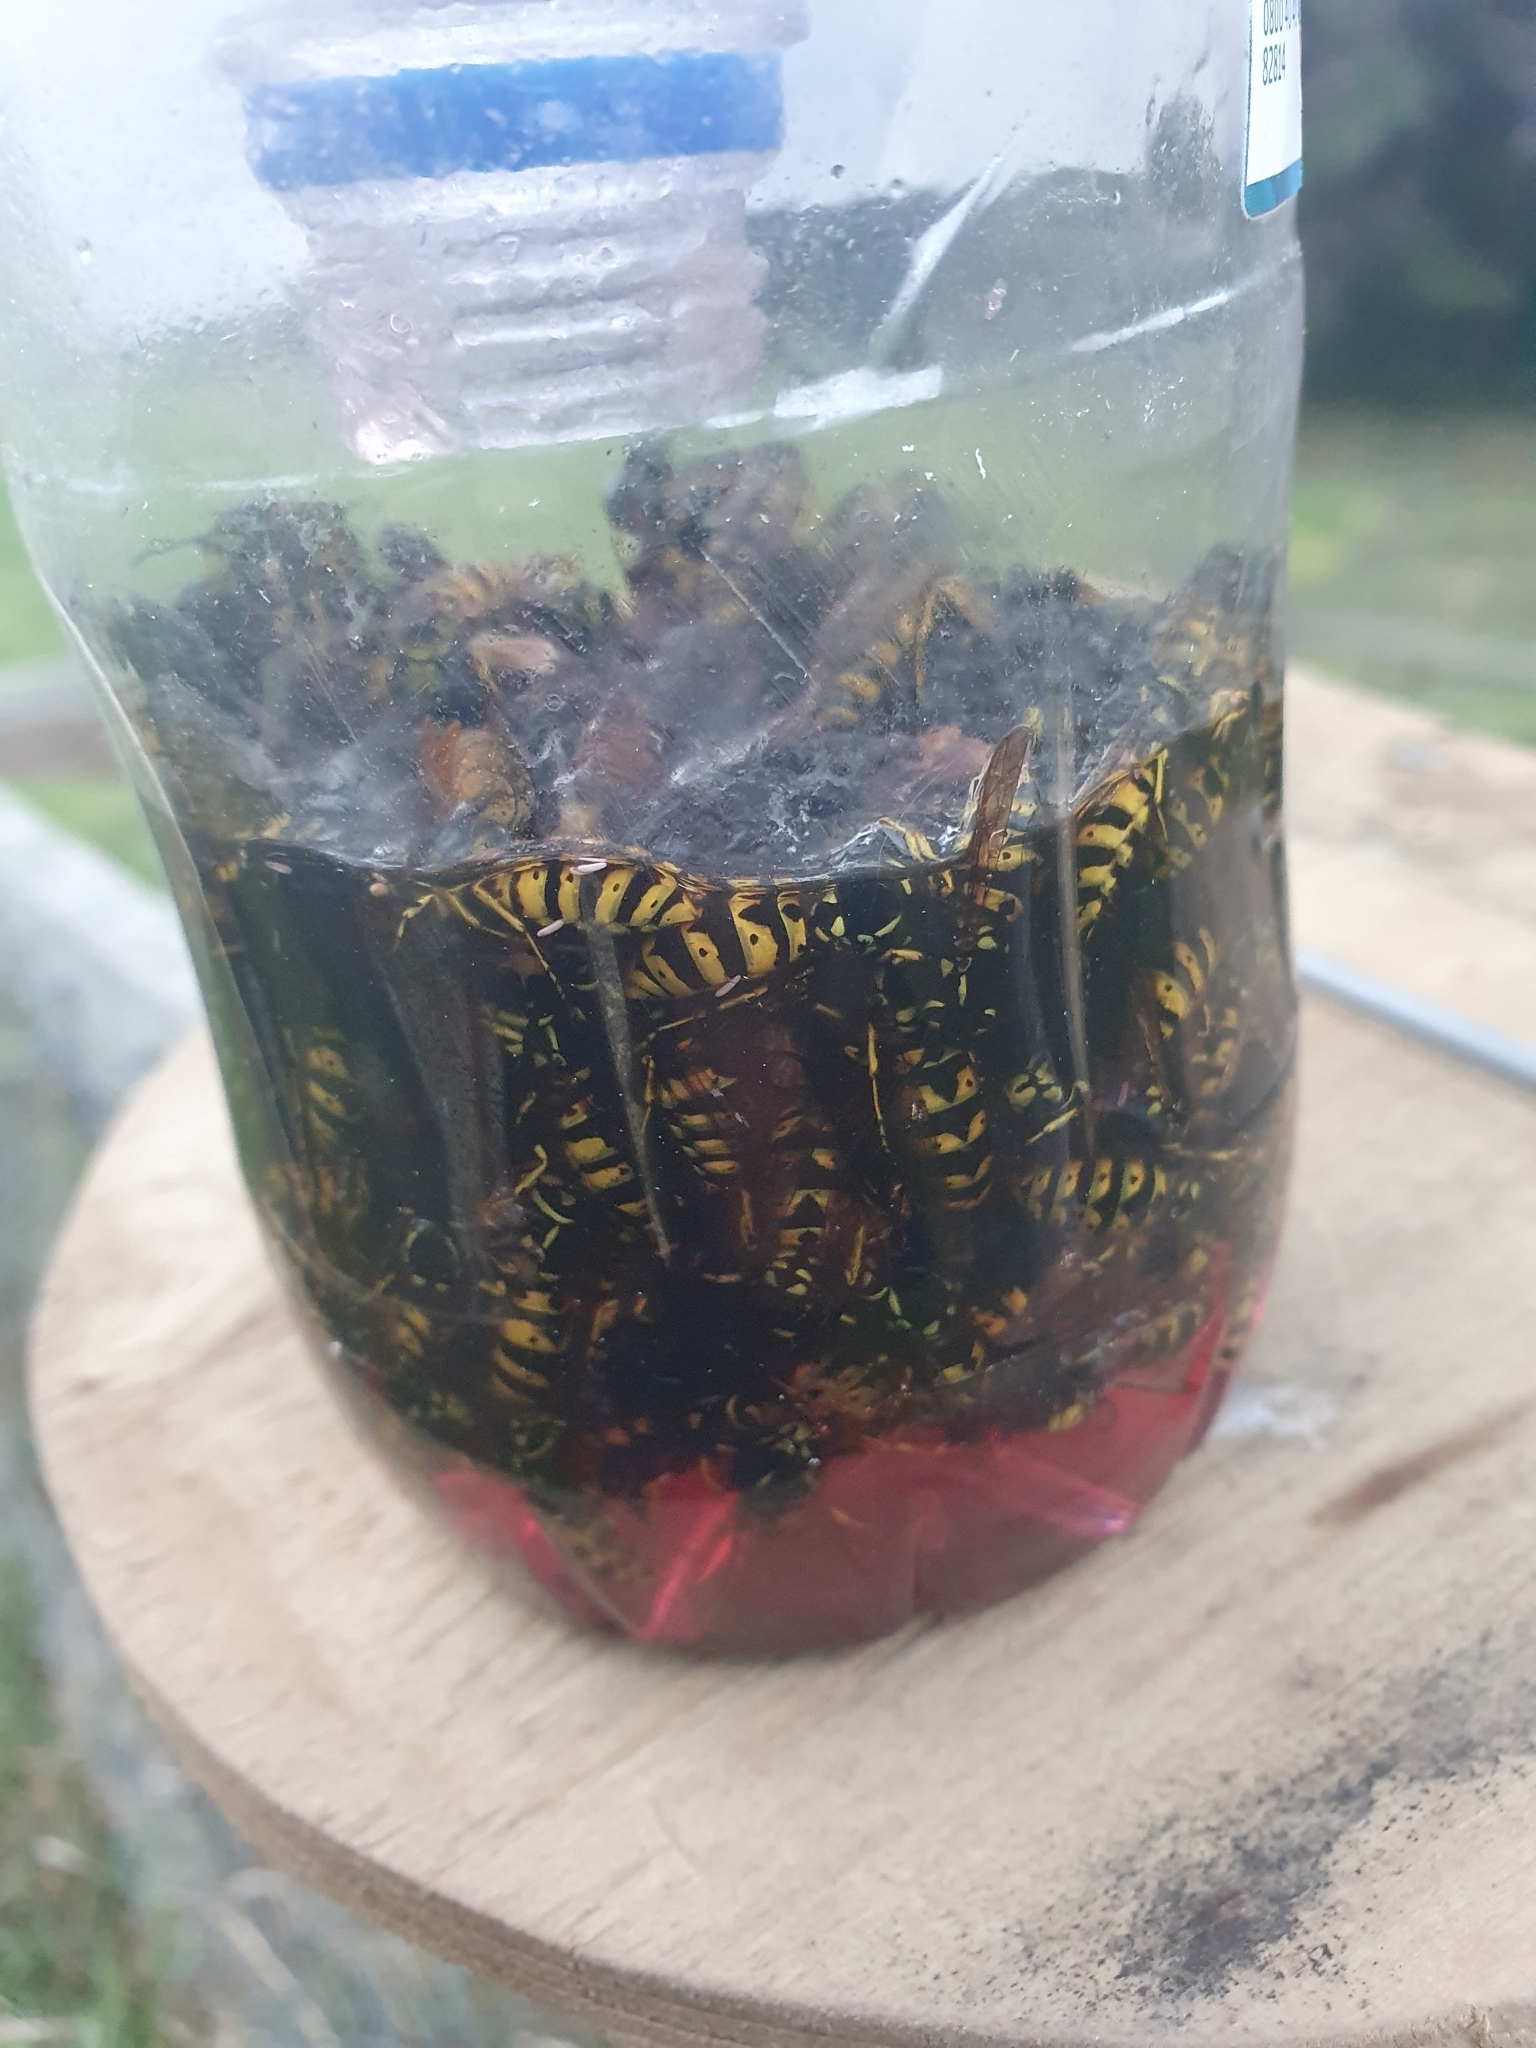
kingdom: Animalia
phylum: Arthropoda
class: Insecta
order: Hymenoptera
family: Vespidae
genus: Vespula
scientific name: Vespula germanica
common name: German wasp
